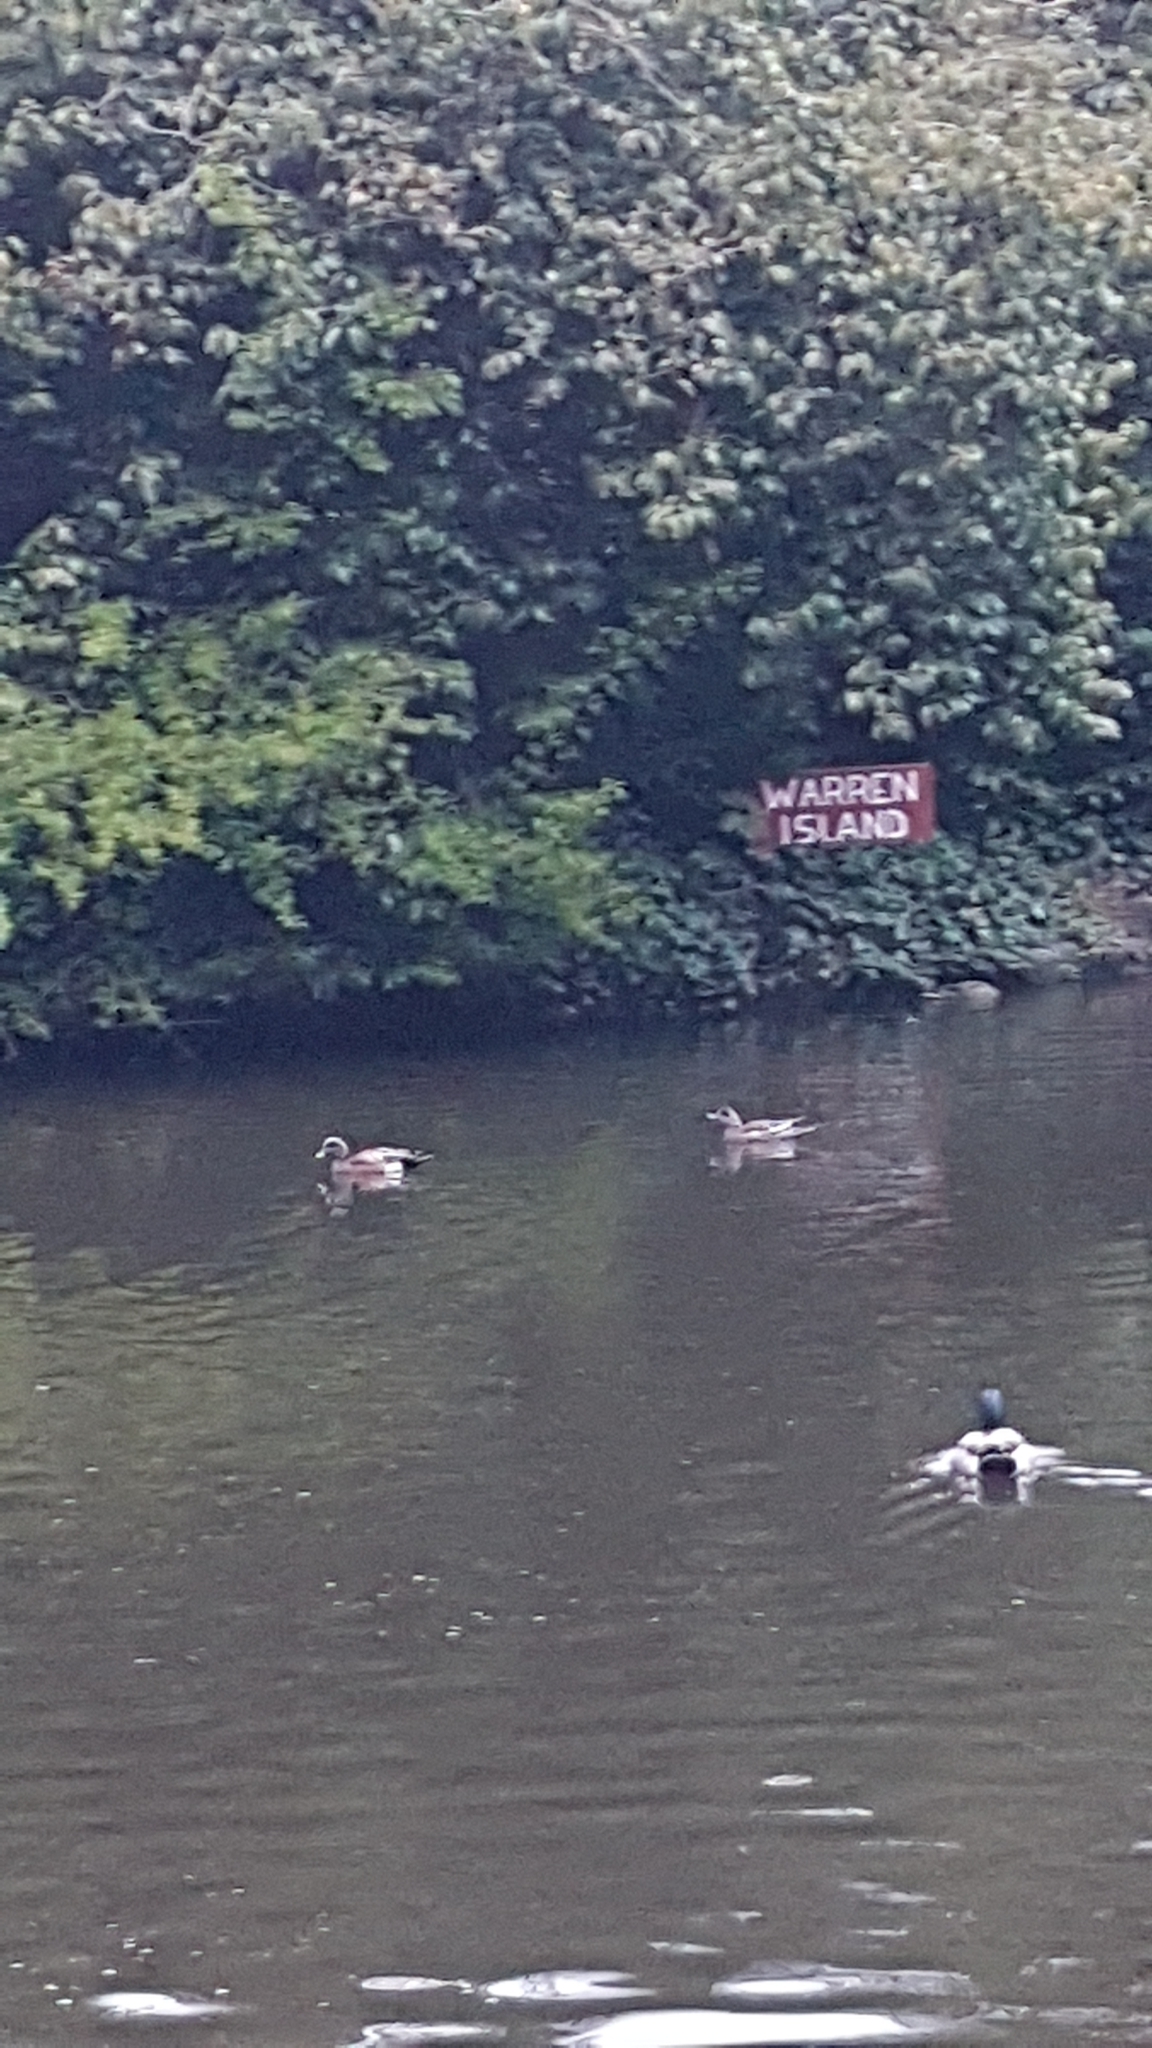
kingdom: Animalia
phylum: Chordata
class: Aves
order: Anseriformes
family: Anatidae
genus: Mareca
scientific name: Mareca americana
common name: American wigeon
